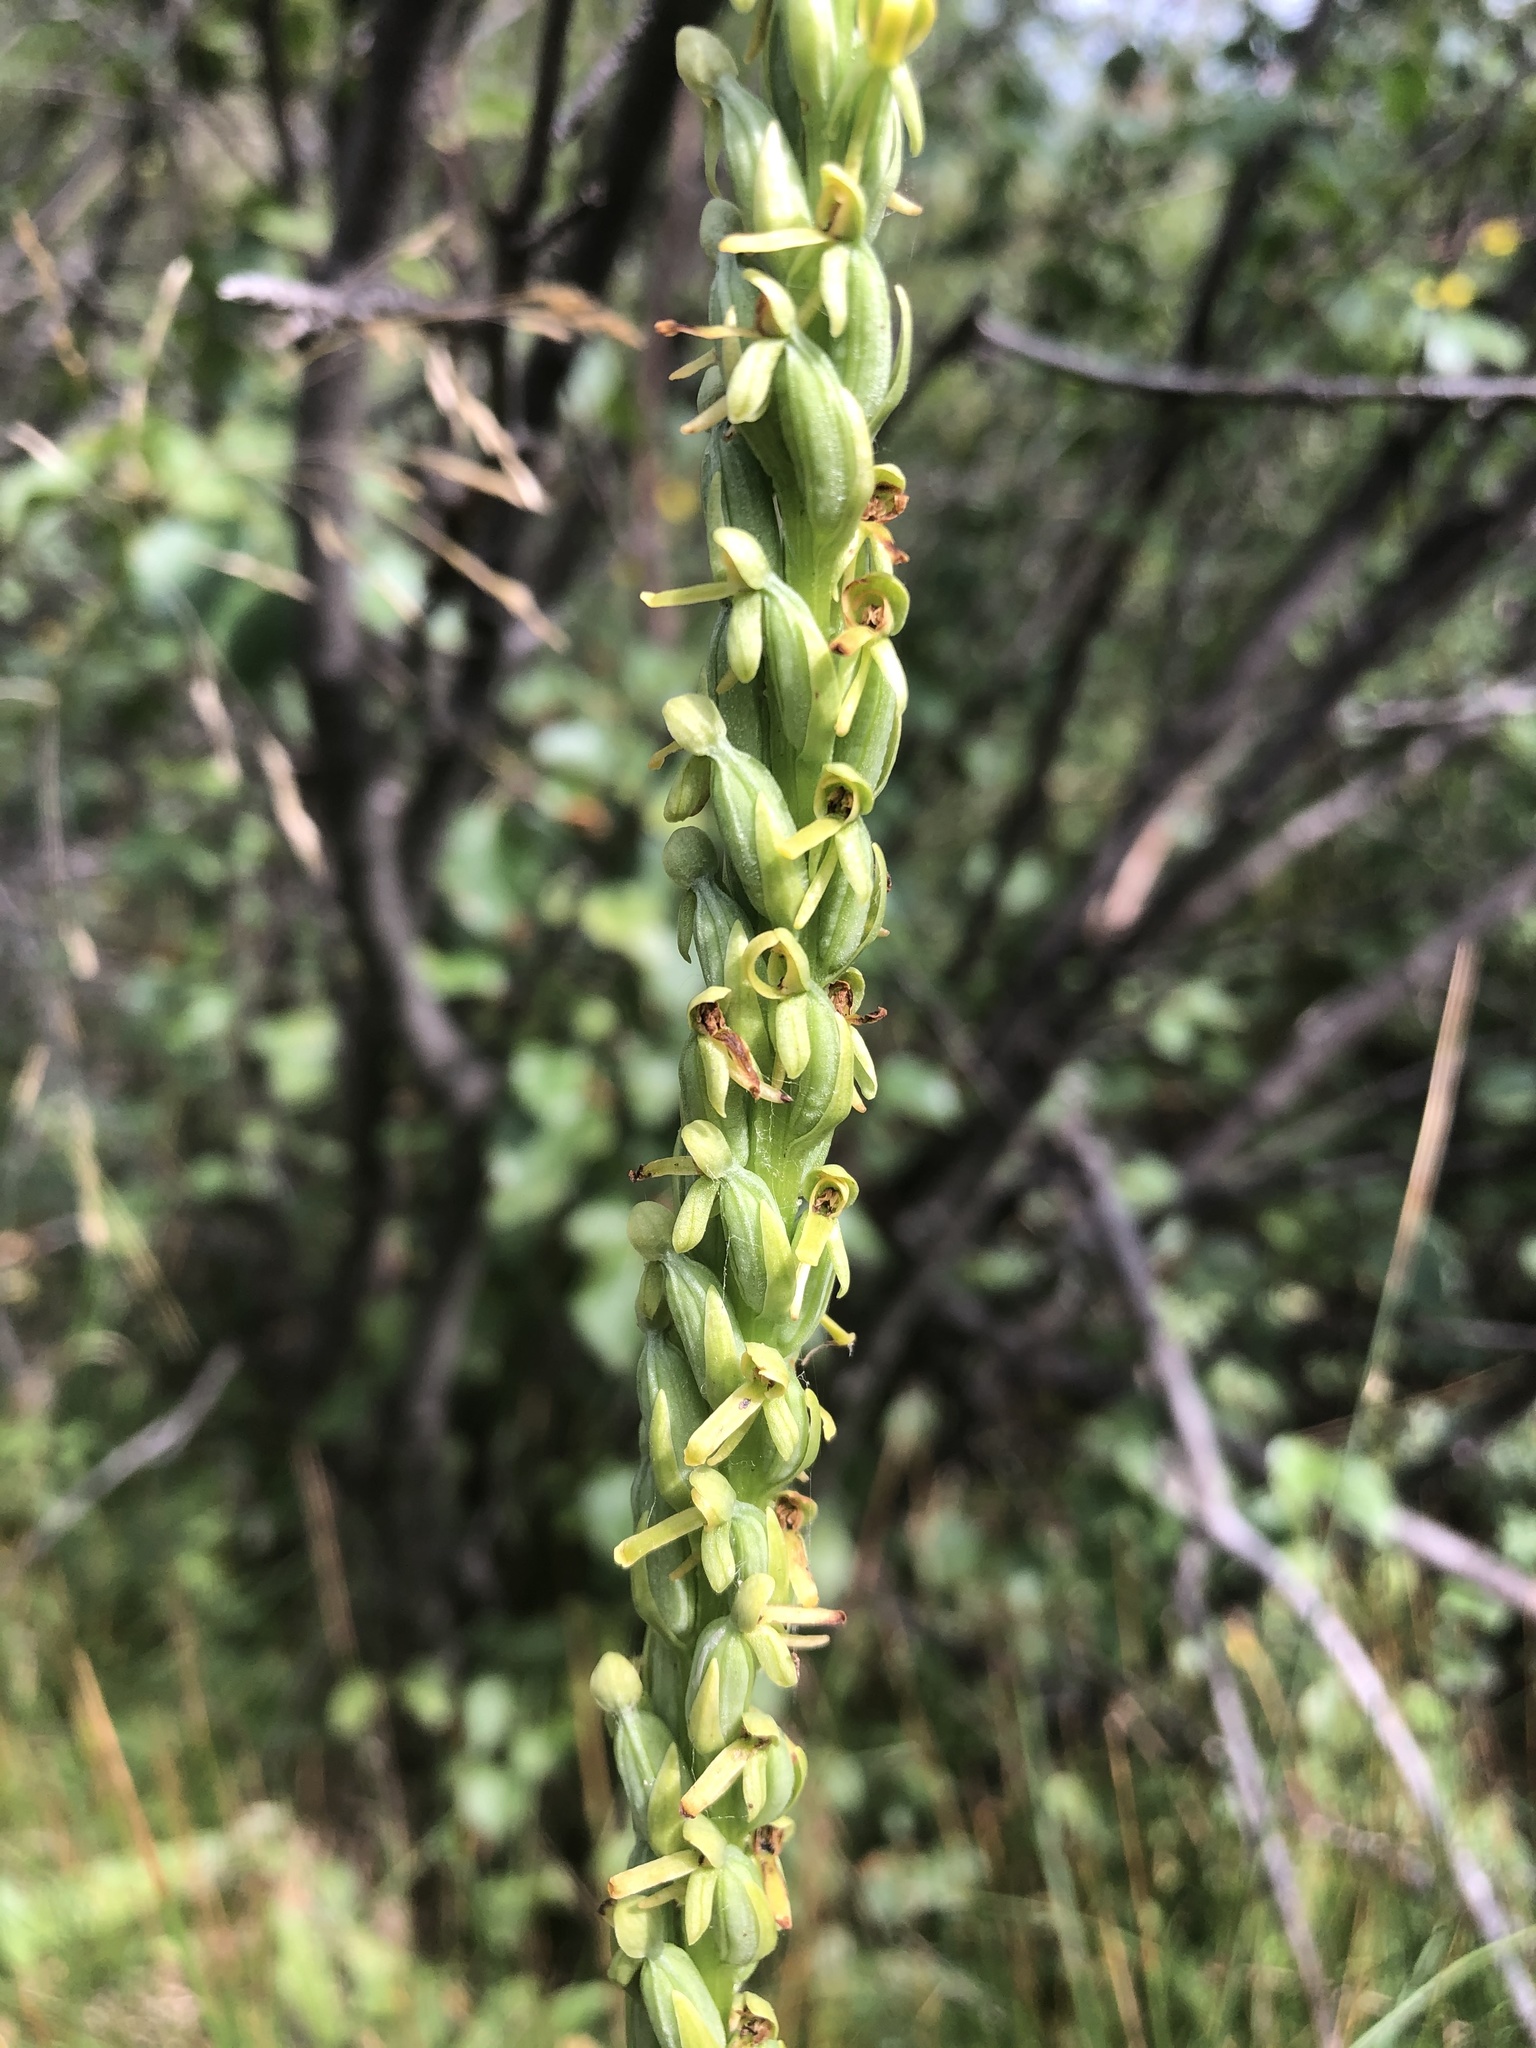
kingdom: Plantae
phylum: Tracheophyta
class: Liliopsida
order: Asparagales
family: Orchidaceae
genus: Platanthera
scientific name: Platanthera sparsiflora
